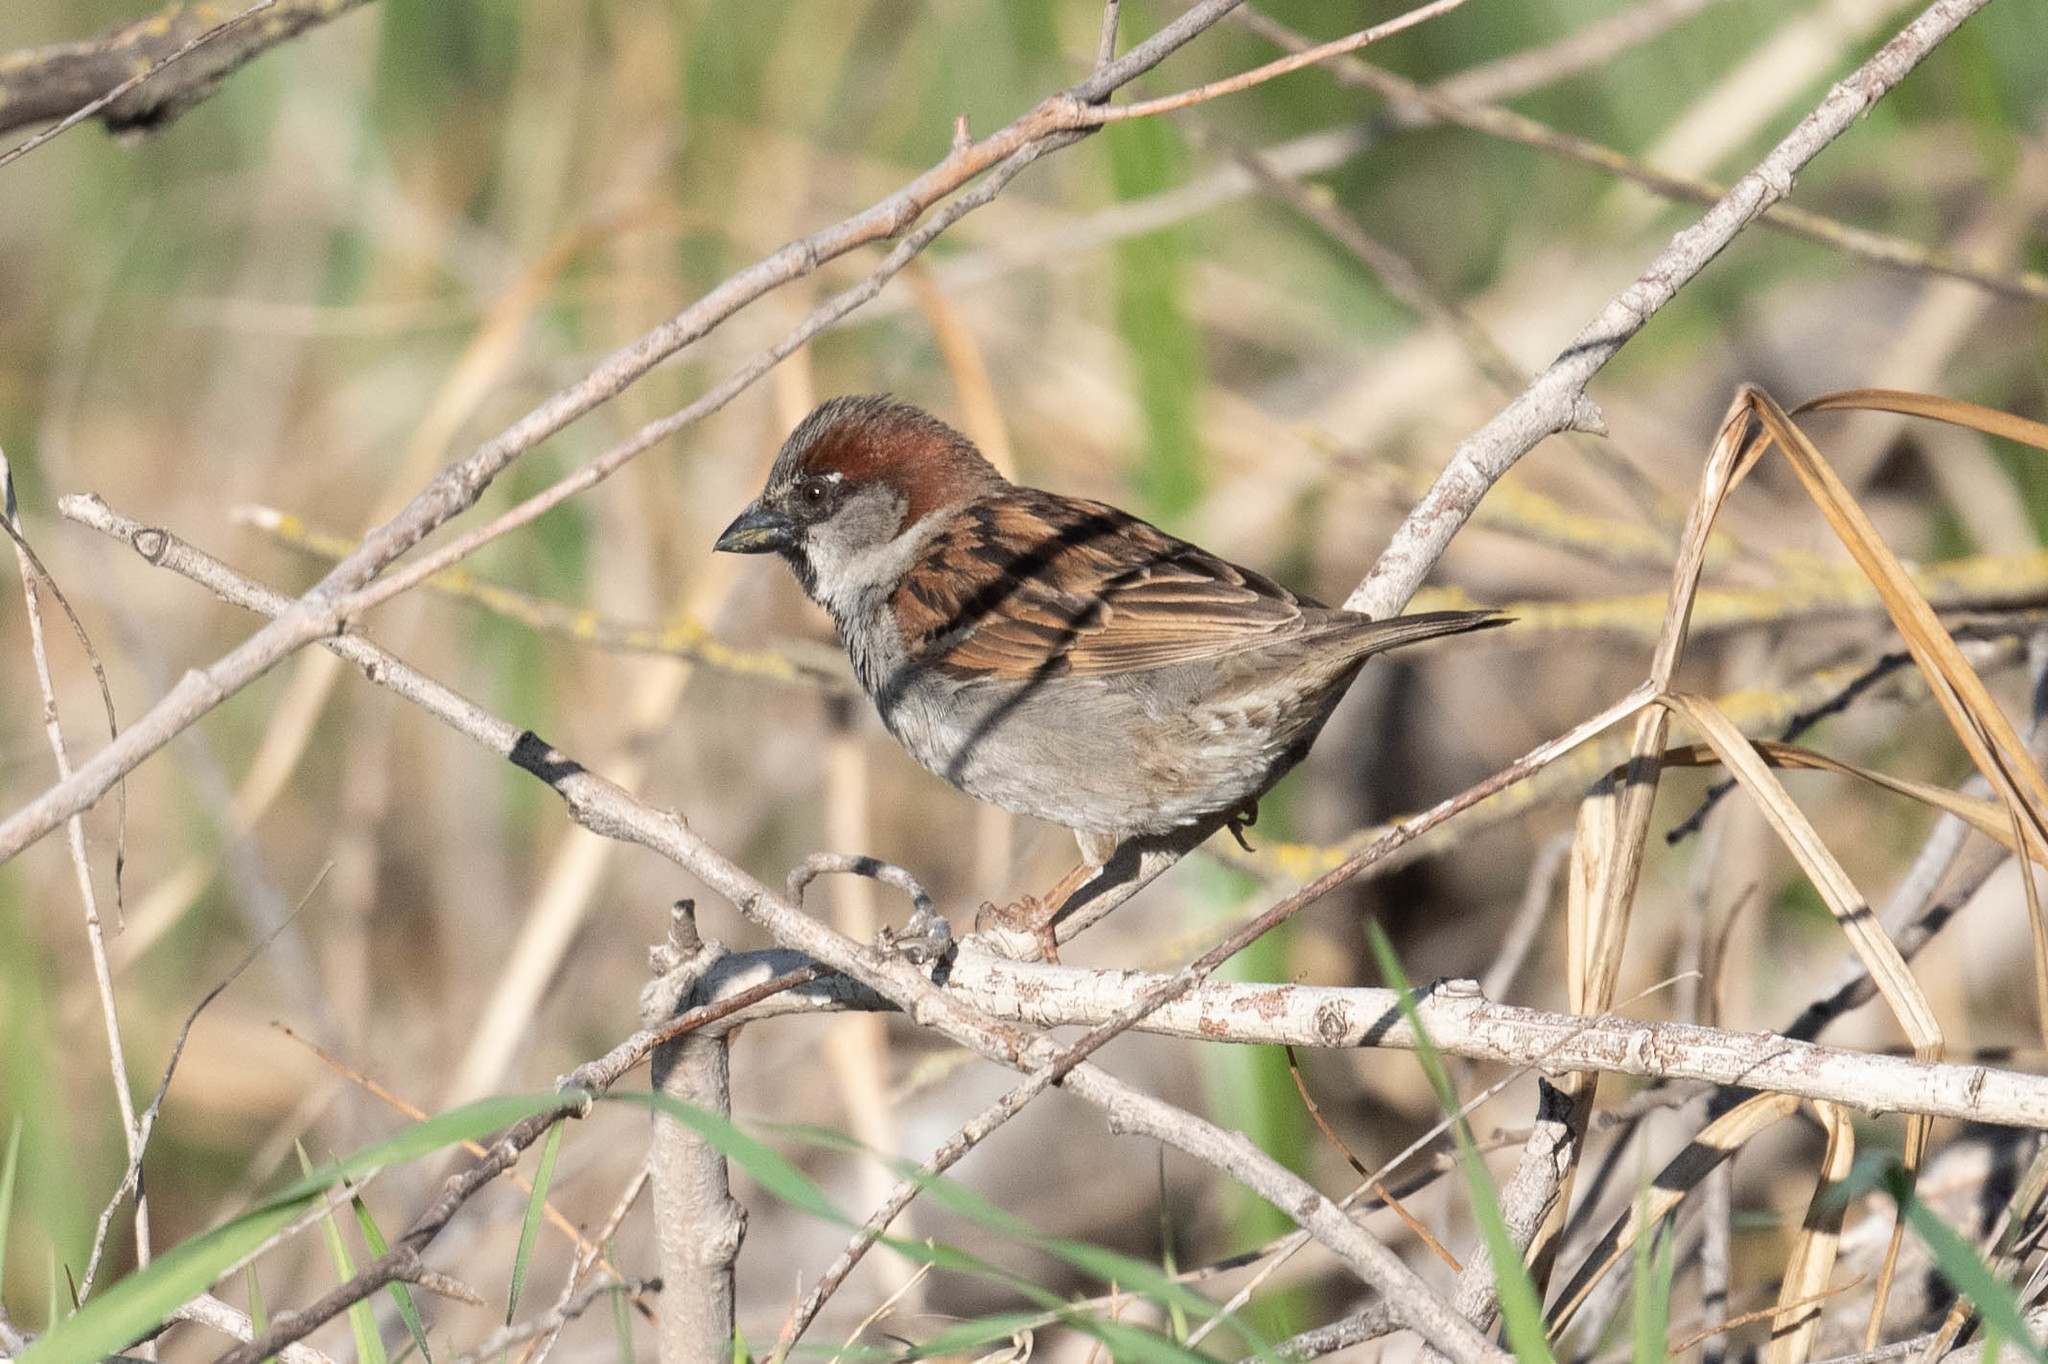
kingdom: Animalia
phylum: Chordata
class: Aves
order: Passeriformes
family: Passeridae
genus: Passer
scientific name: Passer domesticus
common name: House sparrow
